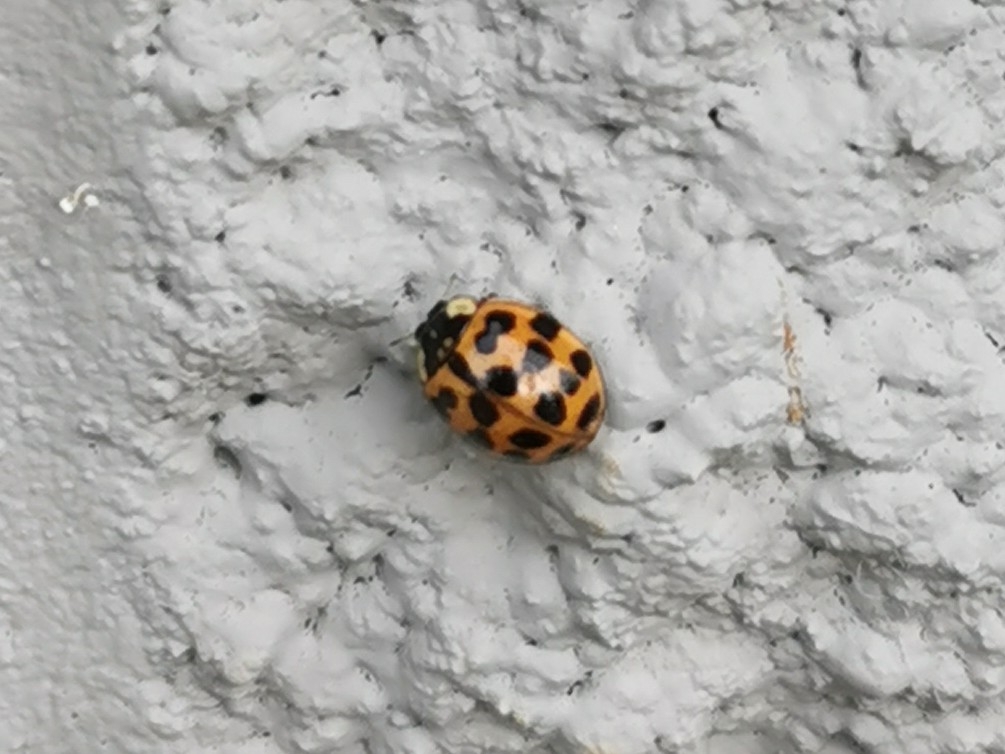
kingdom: Animalia
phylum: Arthropoda
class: Insecta
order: Coleoptera
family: Coccinellidae
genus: Harmonia
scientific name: Harmonia axyridis
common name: Harlequin ladybird
